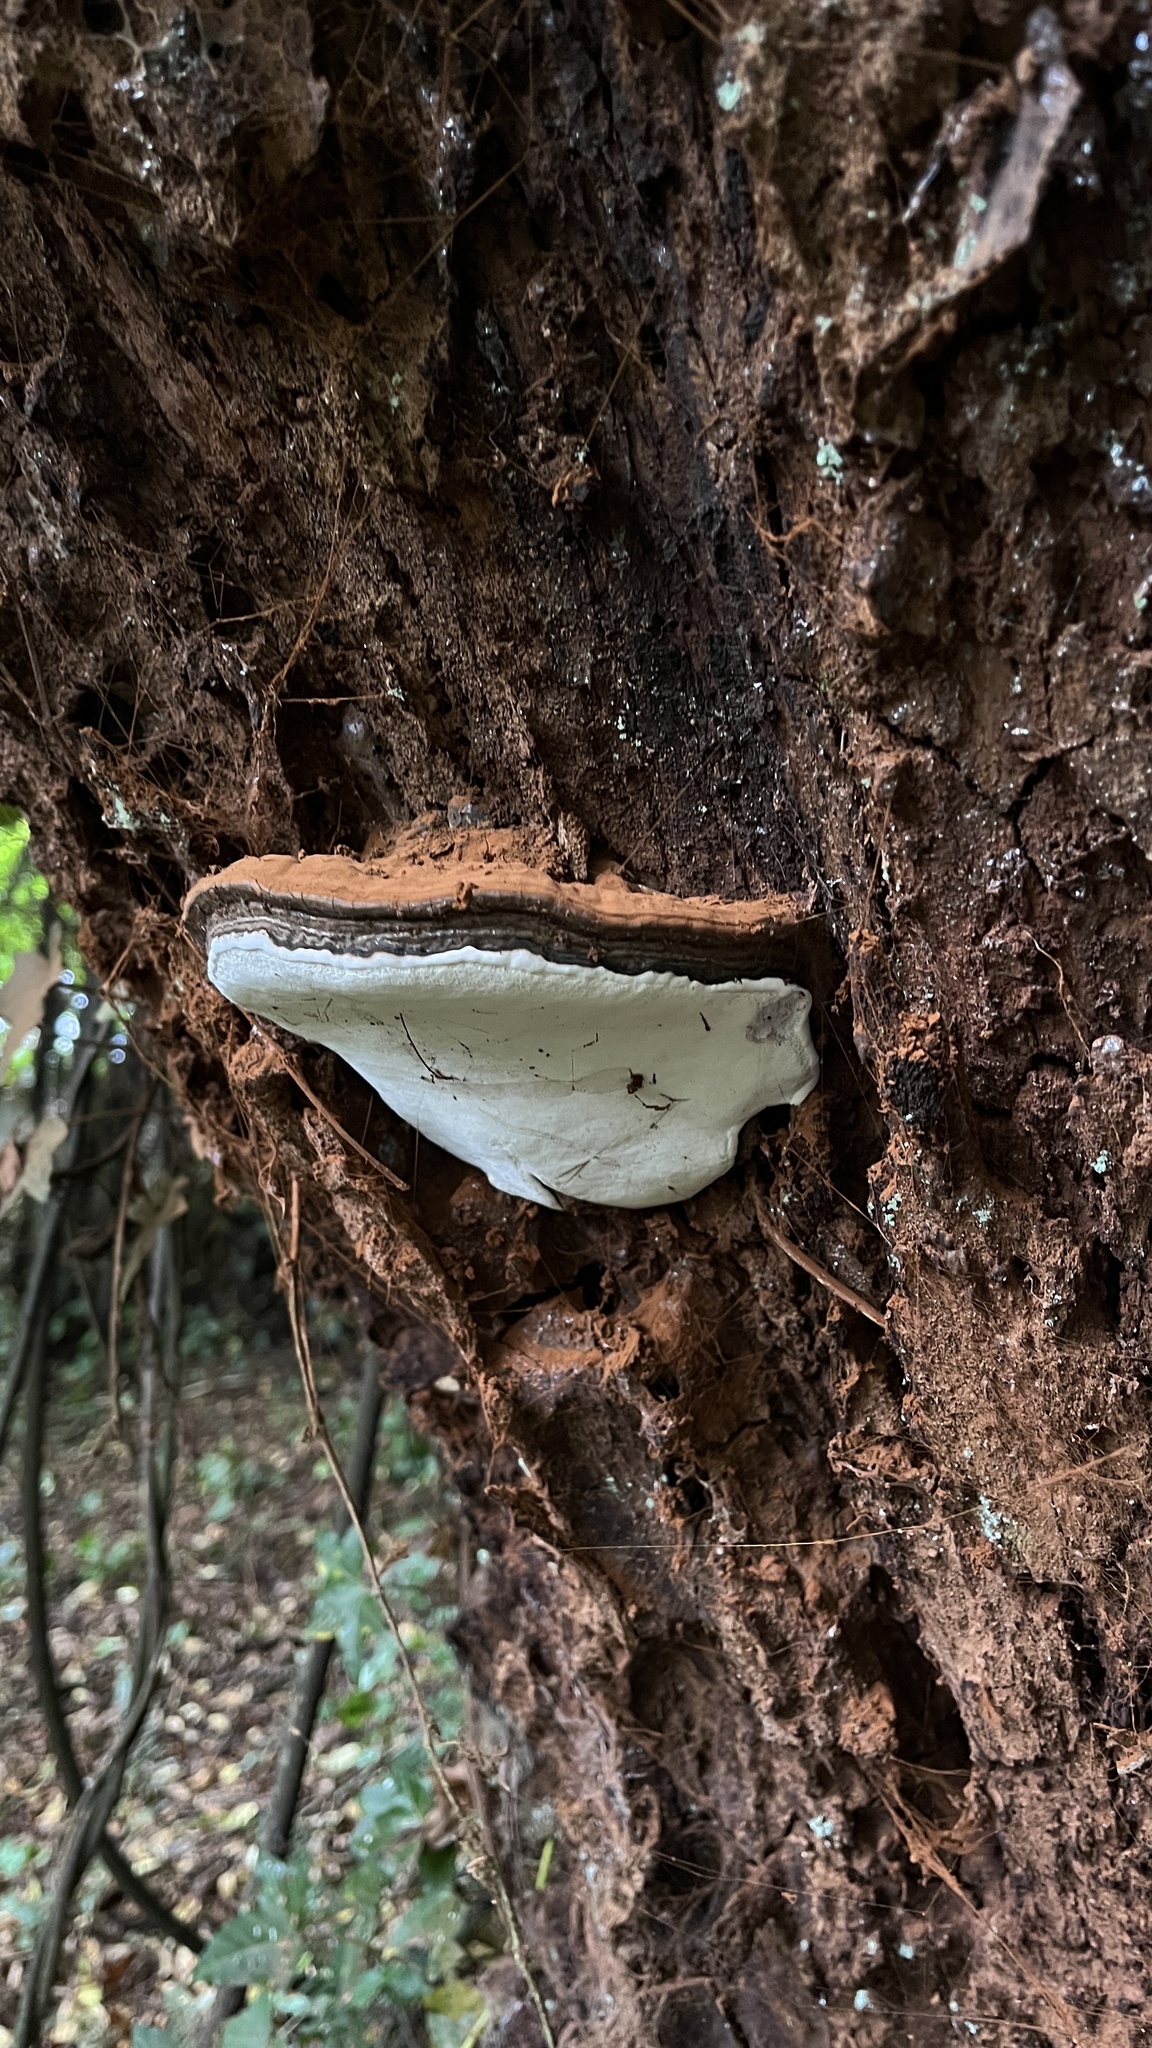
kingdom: Fungi
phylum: Basidiomycota
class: Agaricomycetes
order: Polyporales
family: Polyporaceae
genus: Ganoderma
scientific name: Ganoderma australe
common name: Southern bracket
